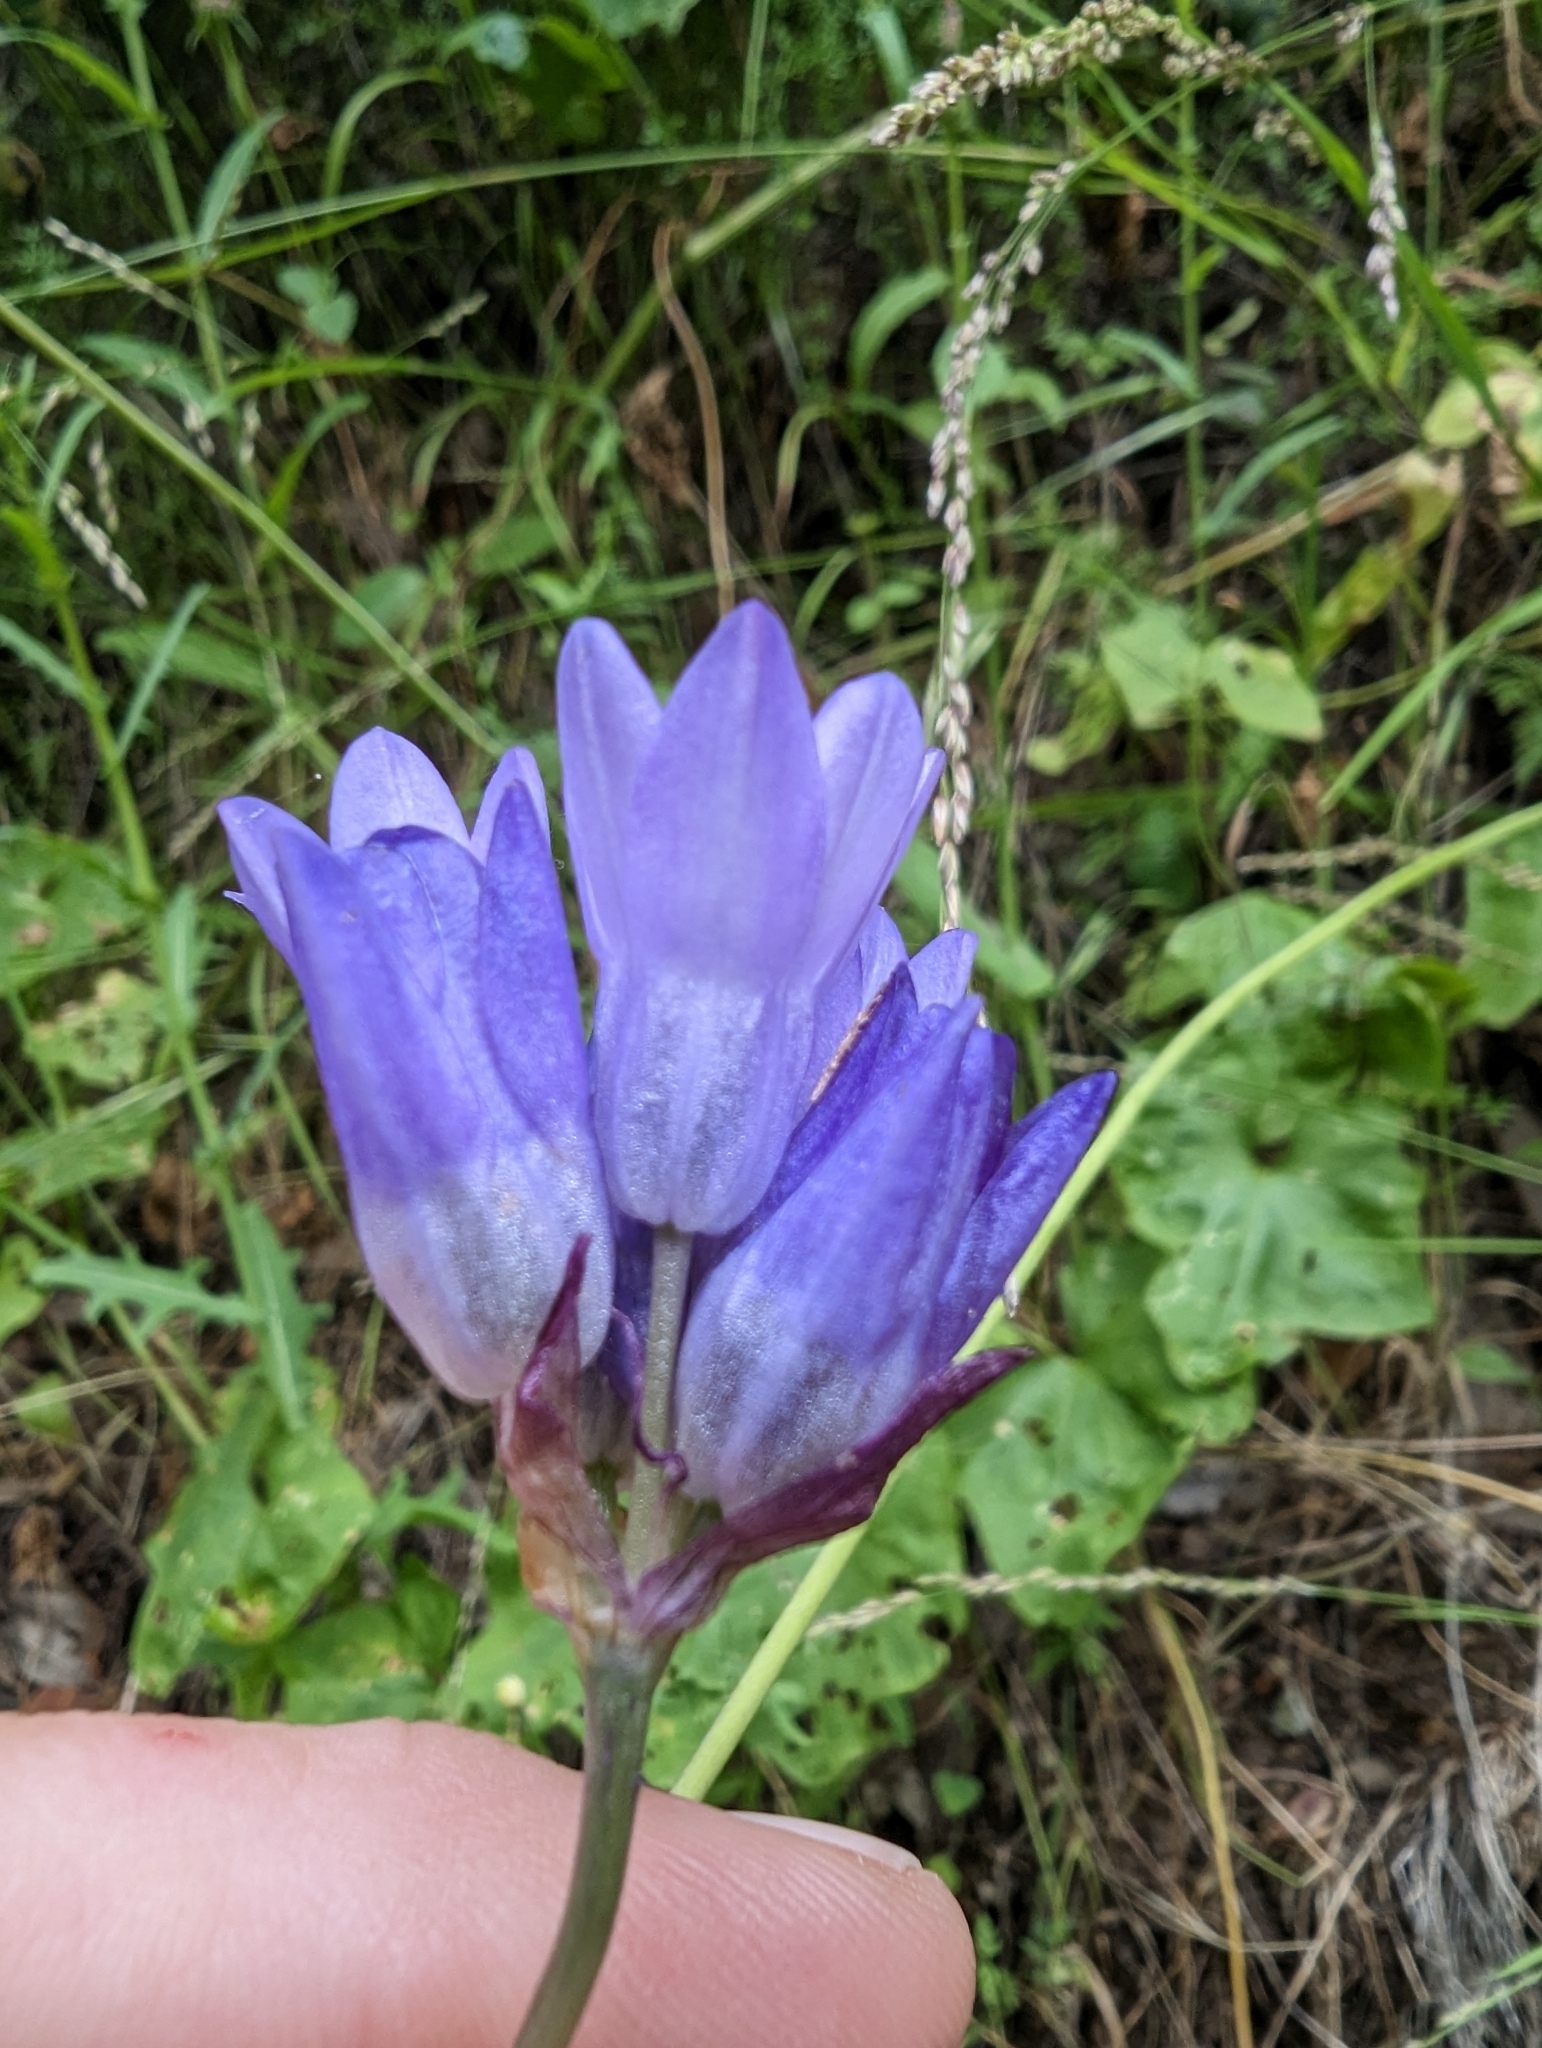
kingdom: Plantae
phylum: Tracheophyta
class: Liliopsida
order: Asparagales
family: Asparagaceae
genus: Dipterostemon
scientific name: Dipterostemon capitatus
